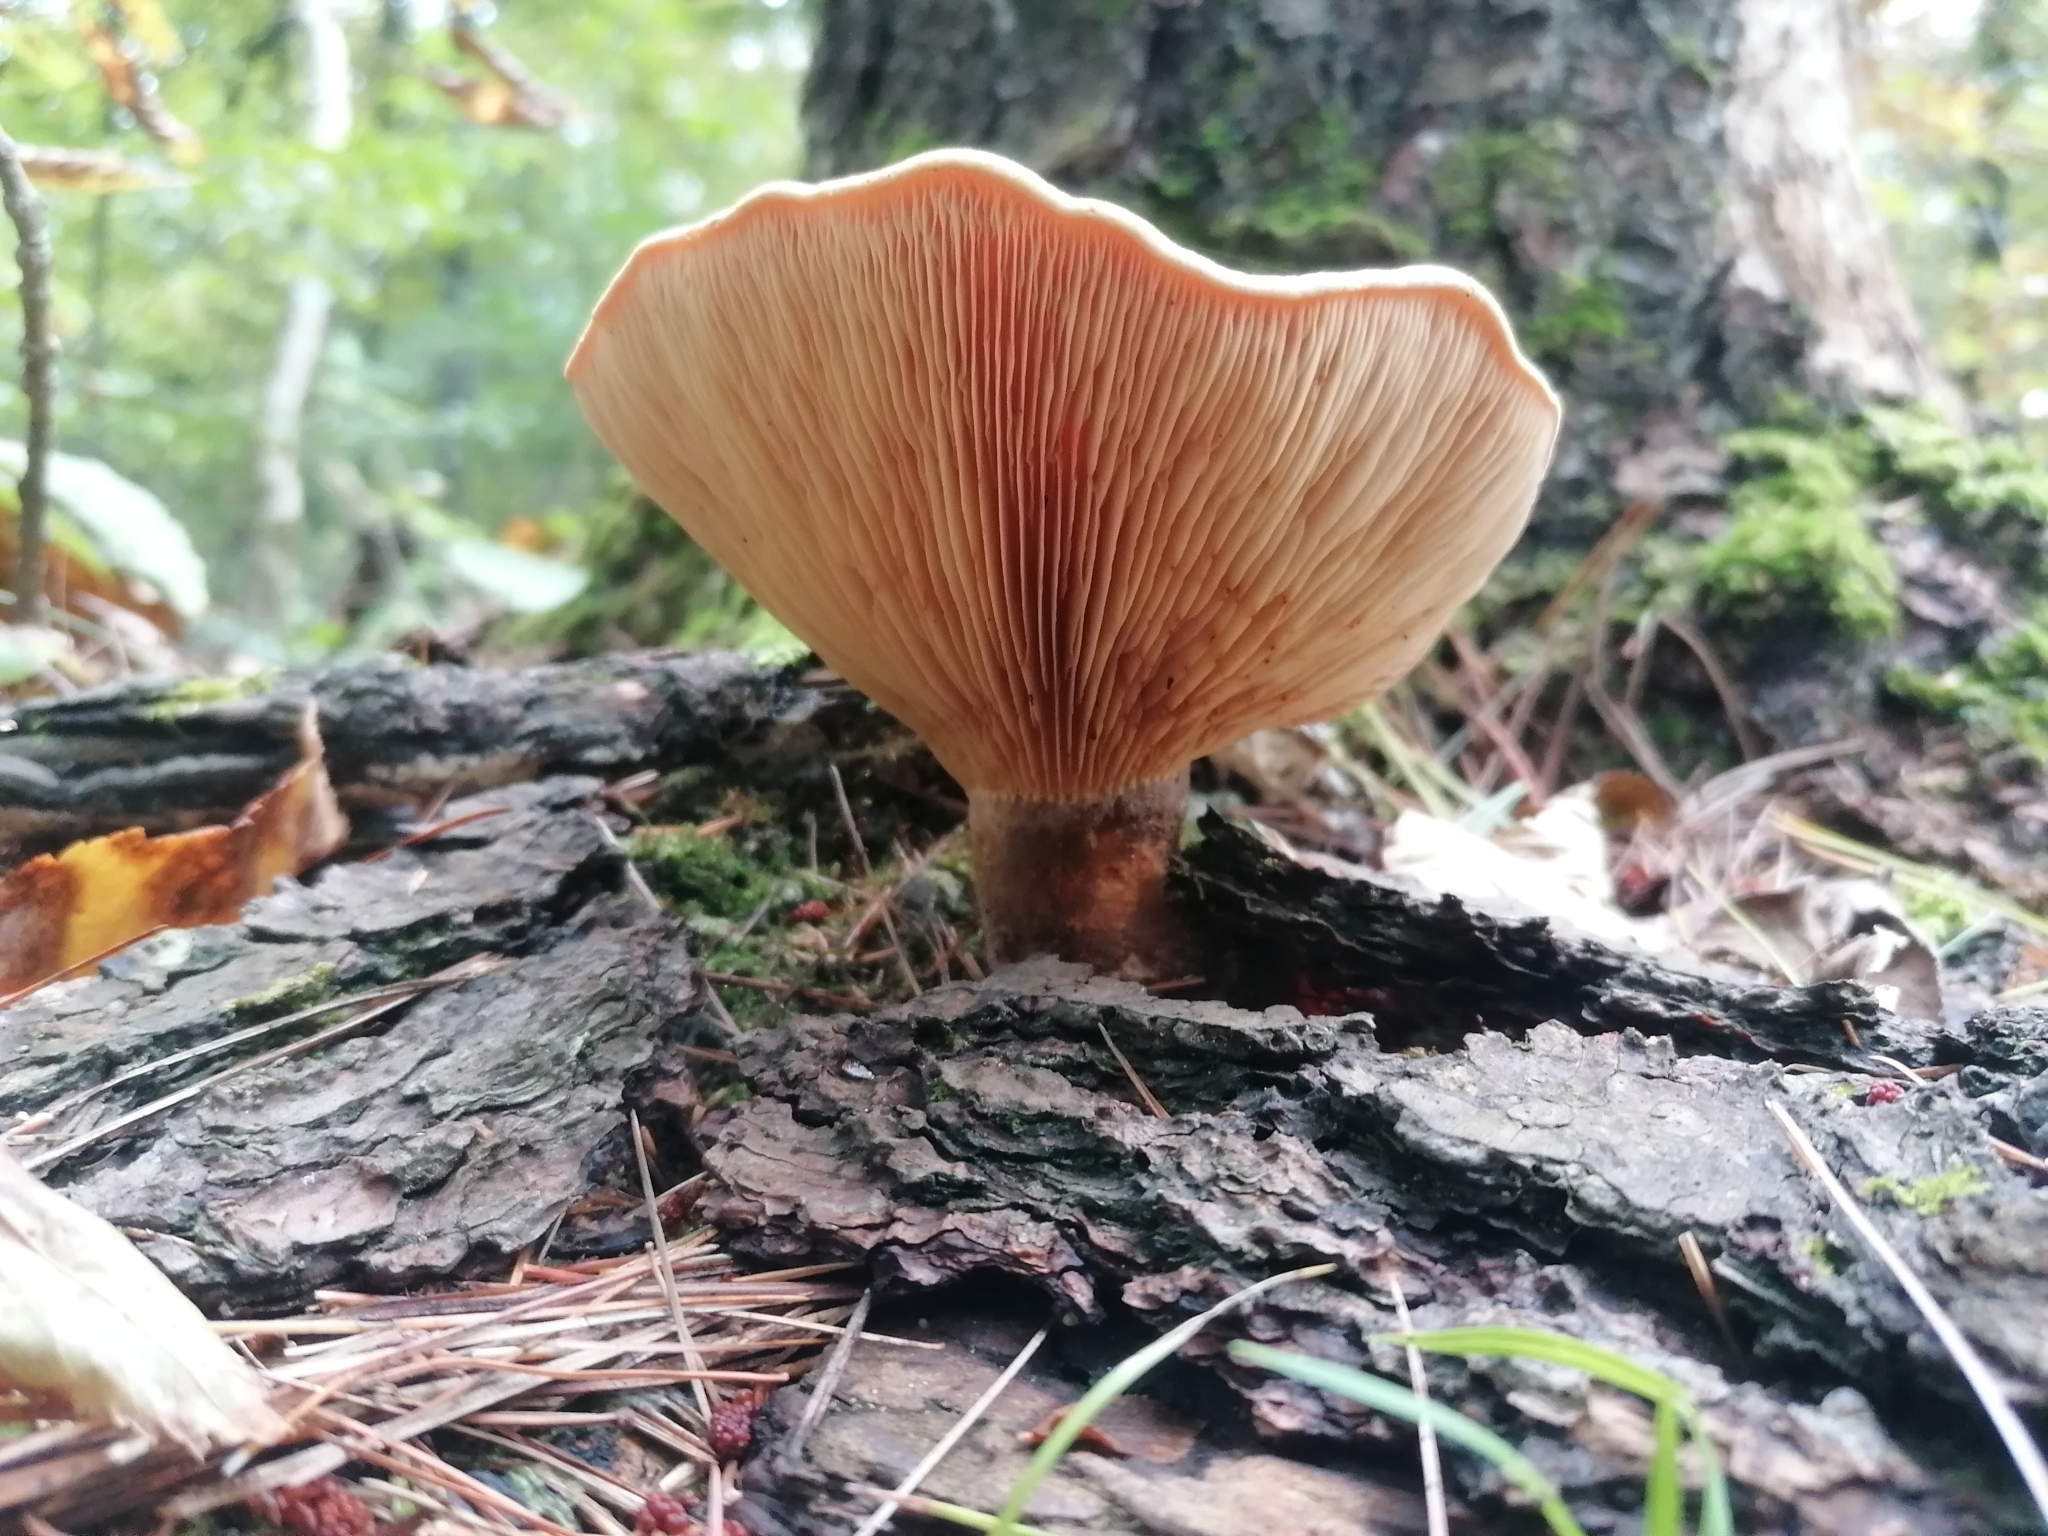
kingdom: Fungi
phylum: Basidiomycota
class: Agaricomycetes
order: Boletales
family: Tapinellaceae
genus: Tapinella
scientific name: Tapinella atrotomentosa
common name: Velvet rollrim
